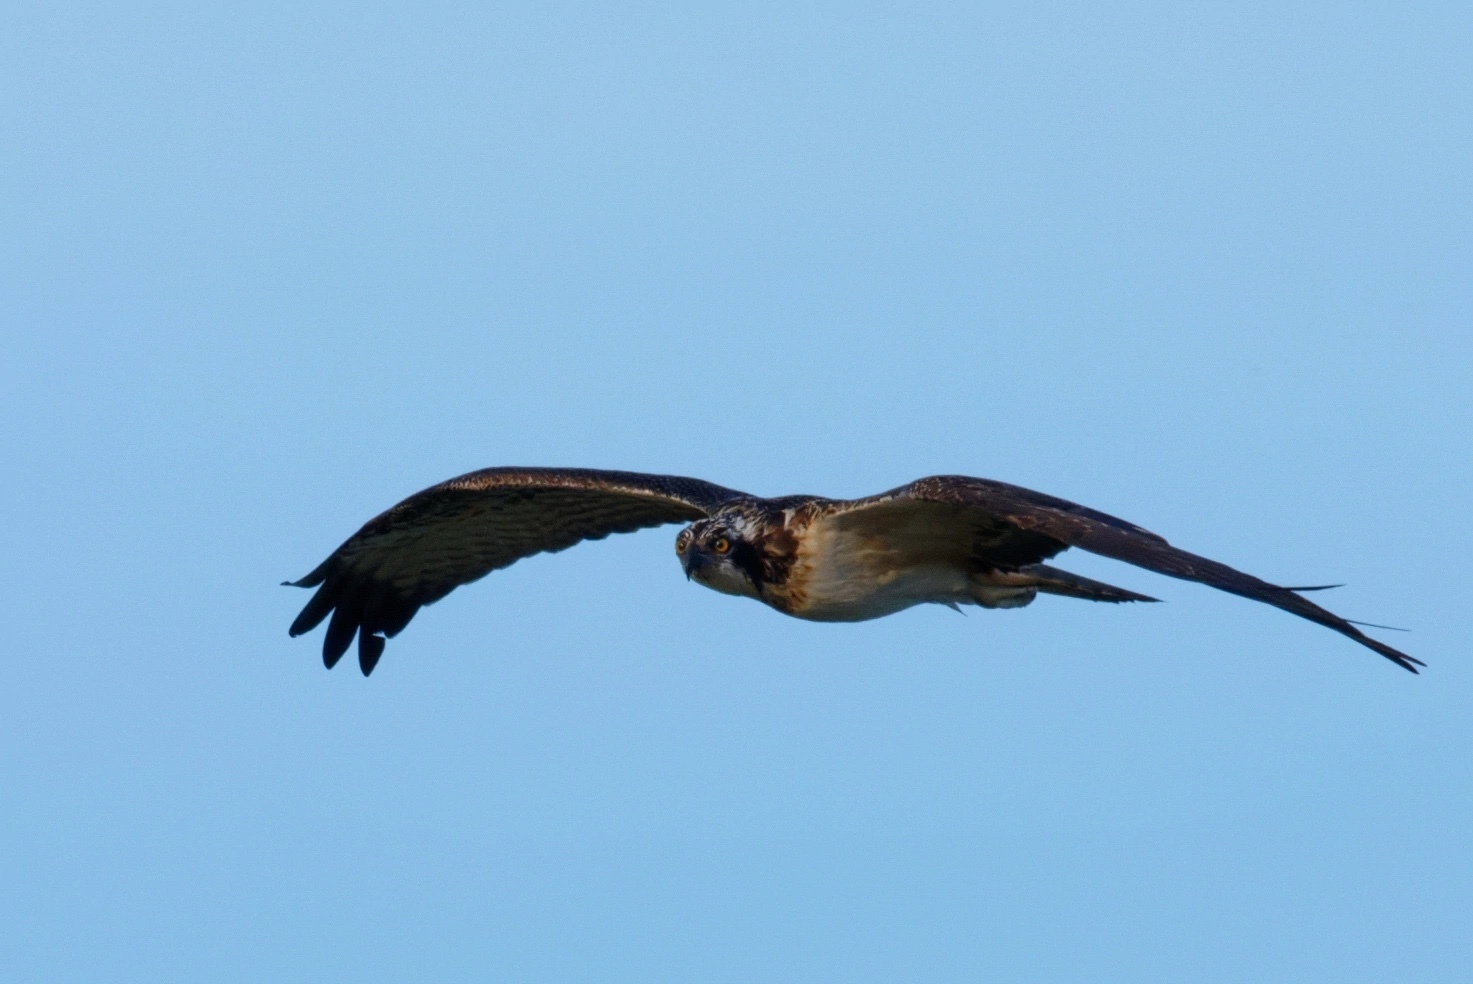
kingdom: Animalia
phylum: Chordata
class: Aves
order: Accipitriformes
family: Pandionidae
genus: Pandion
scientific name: Pandion haliaetus
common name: Osprey
